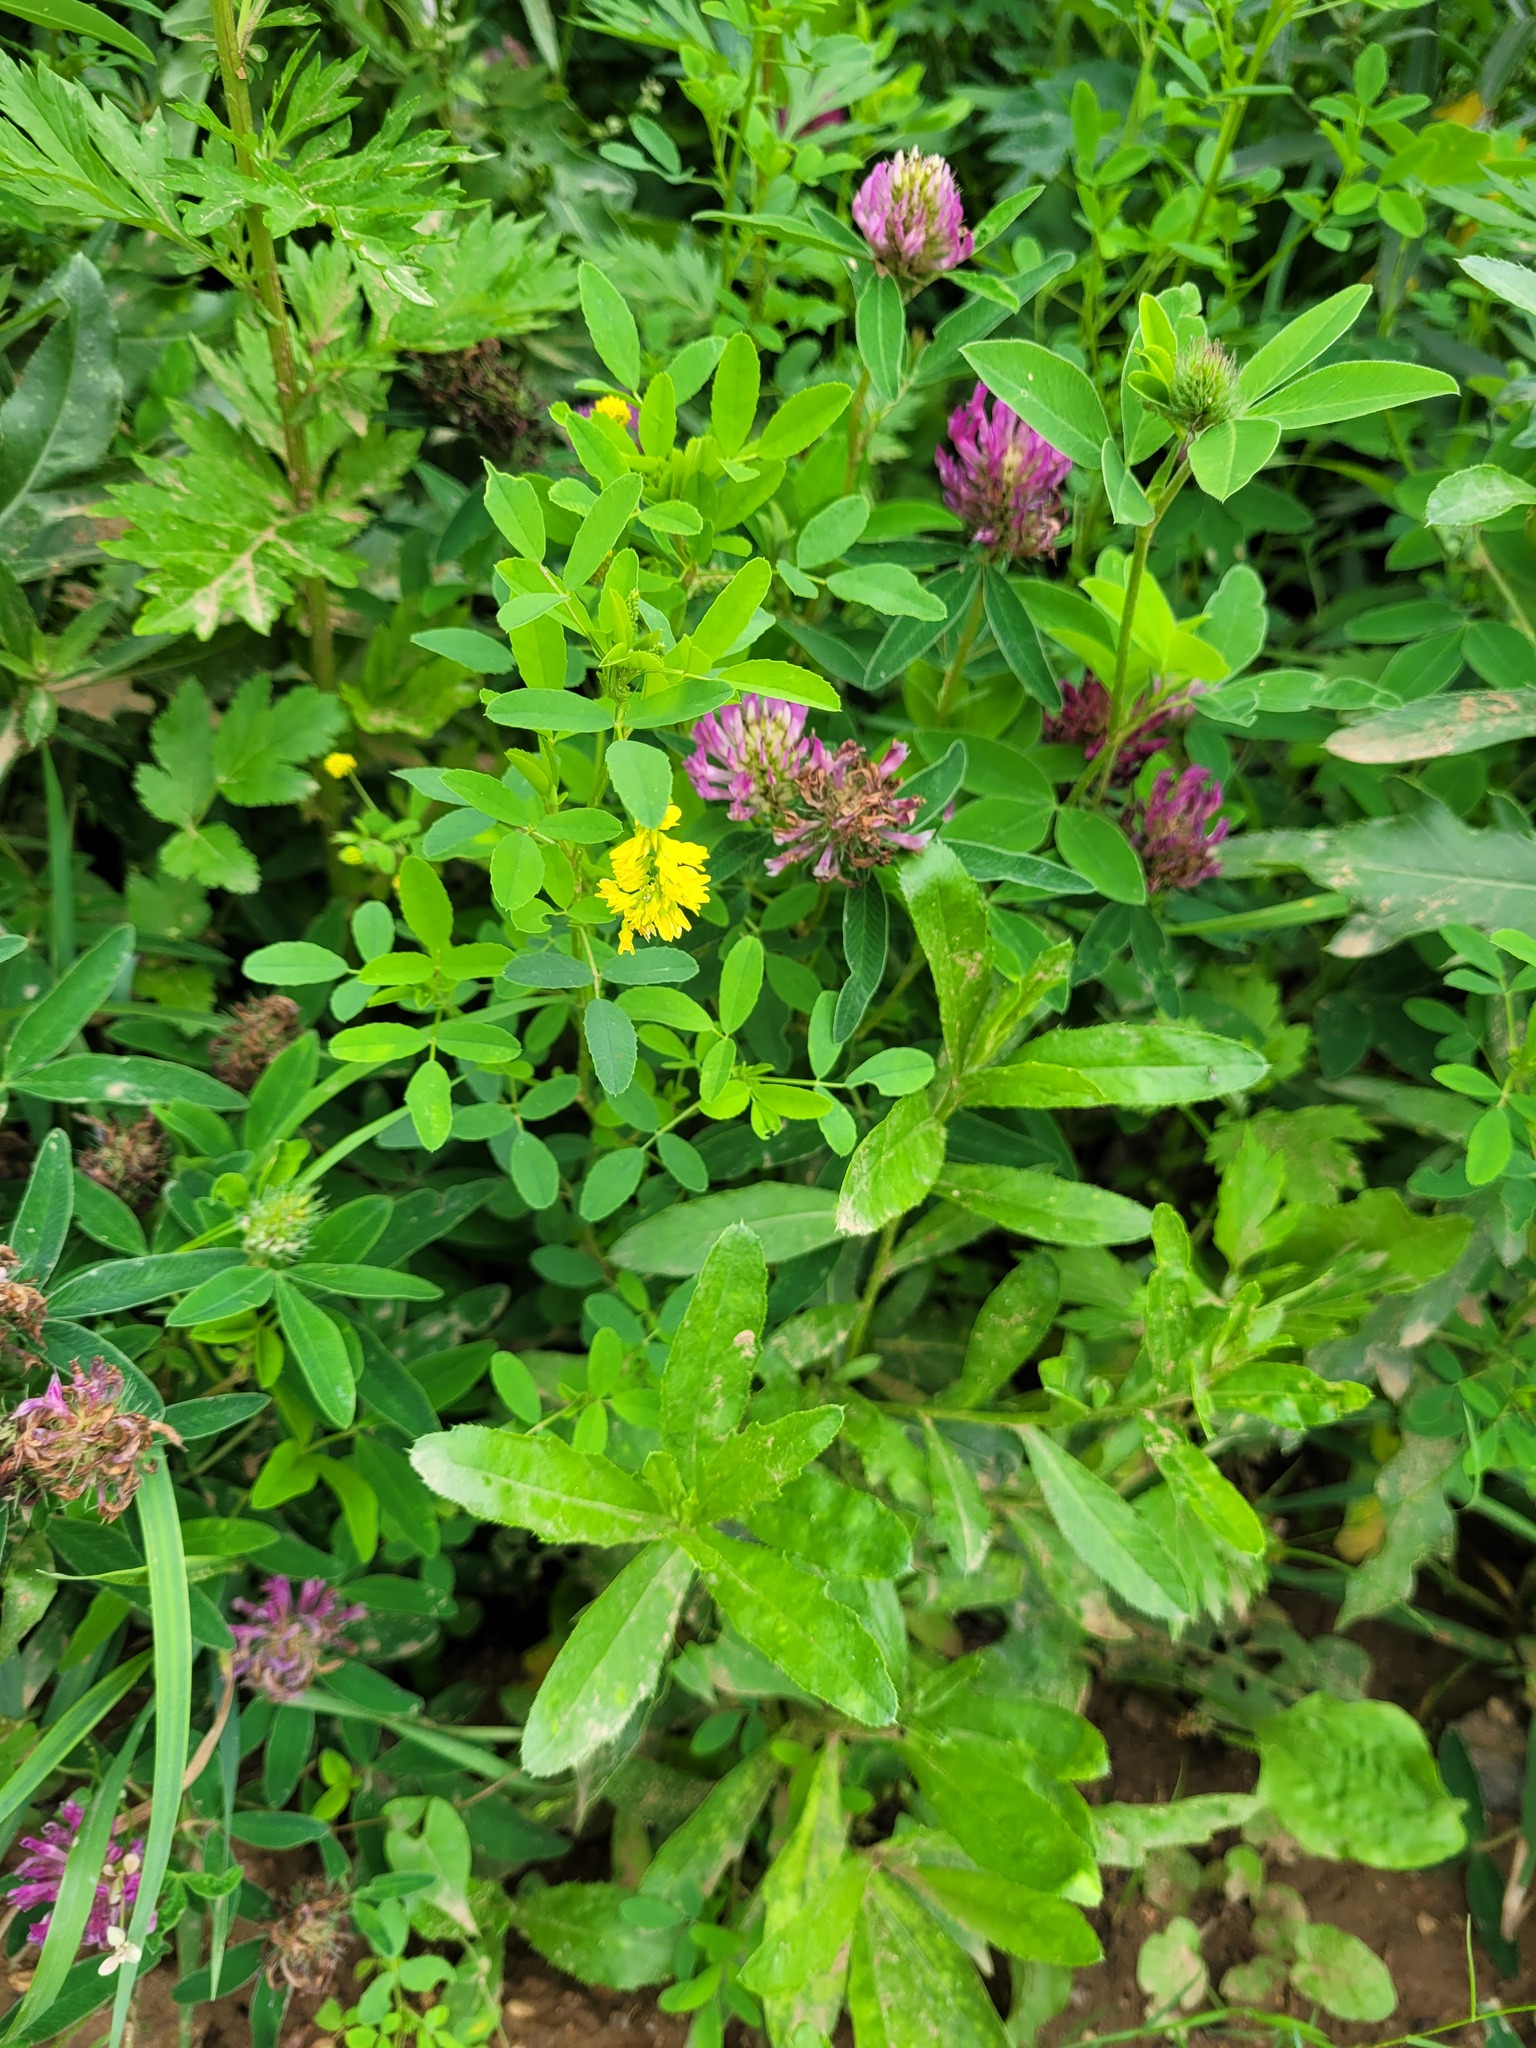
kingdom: Plantae
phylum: Tracheophyta
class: Magnoliopsida
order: Fabales
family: Fabaceae
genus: Melilotus
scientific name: Melilotus officinalis
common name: Sweetclover
